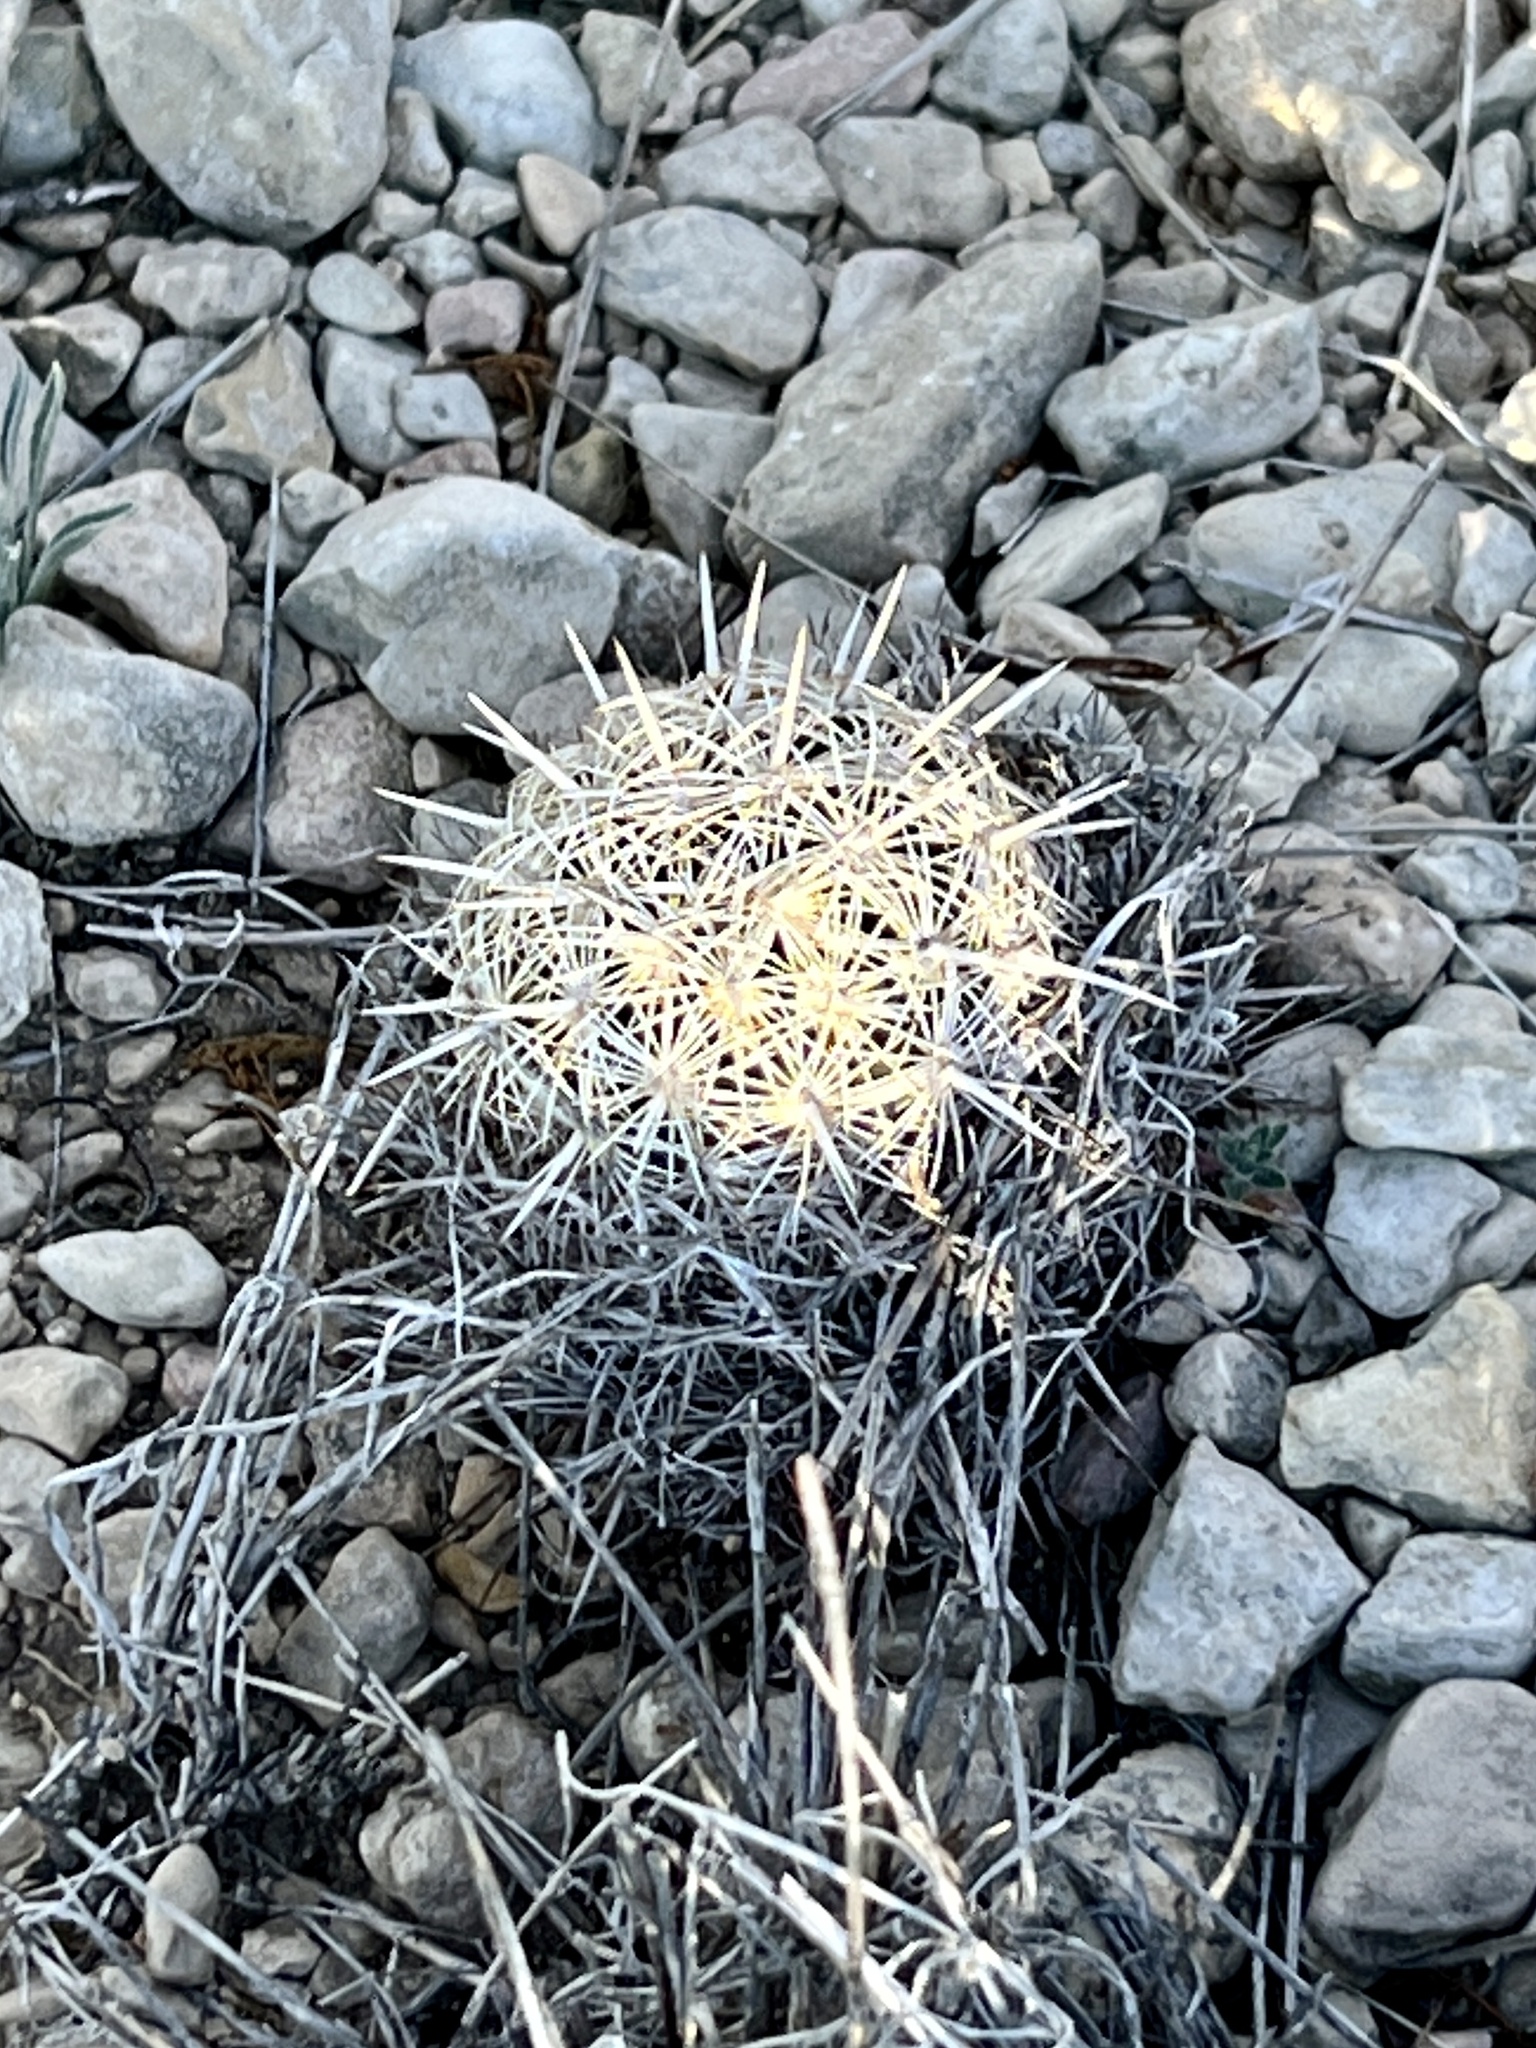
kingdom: Plantae
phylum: Tracheophyta
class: Magnoliopsida
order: Caryophyllales
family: Cactaceae
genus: Coryphantha
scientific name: Coryphantha echinus
